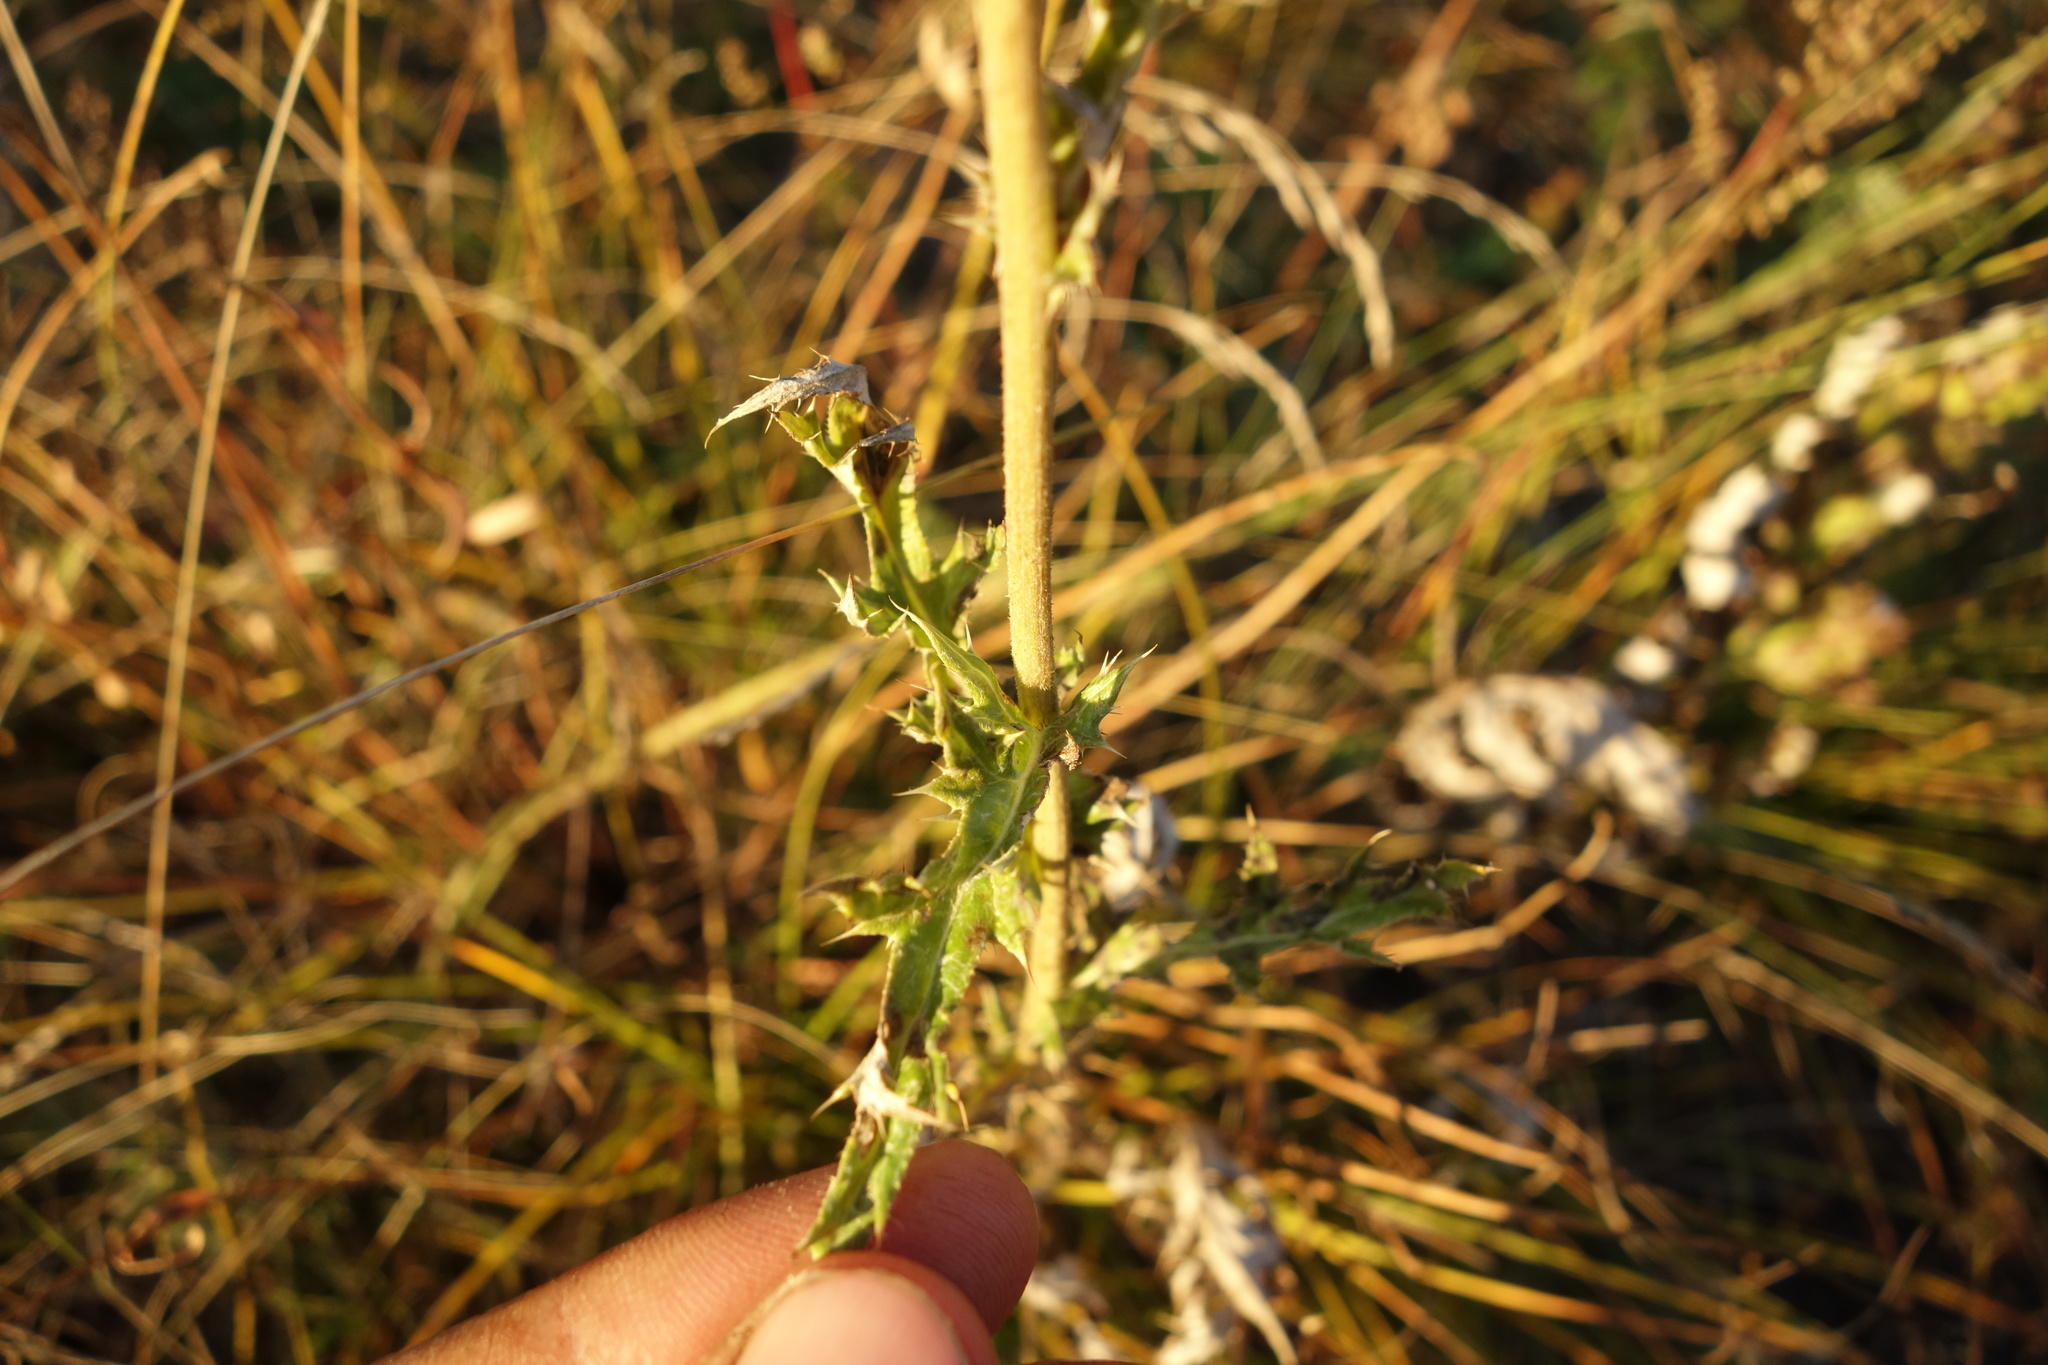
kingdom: Plantae
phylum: Tracheophyta
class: Magnoliopsida
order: Asterales
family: Asteraceae
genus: Echinops
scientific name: Echinops davuricus
